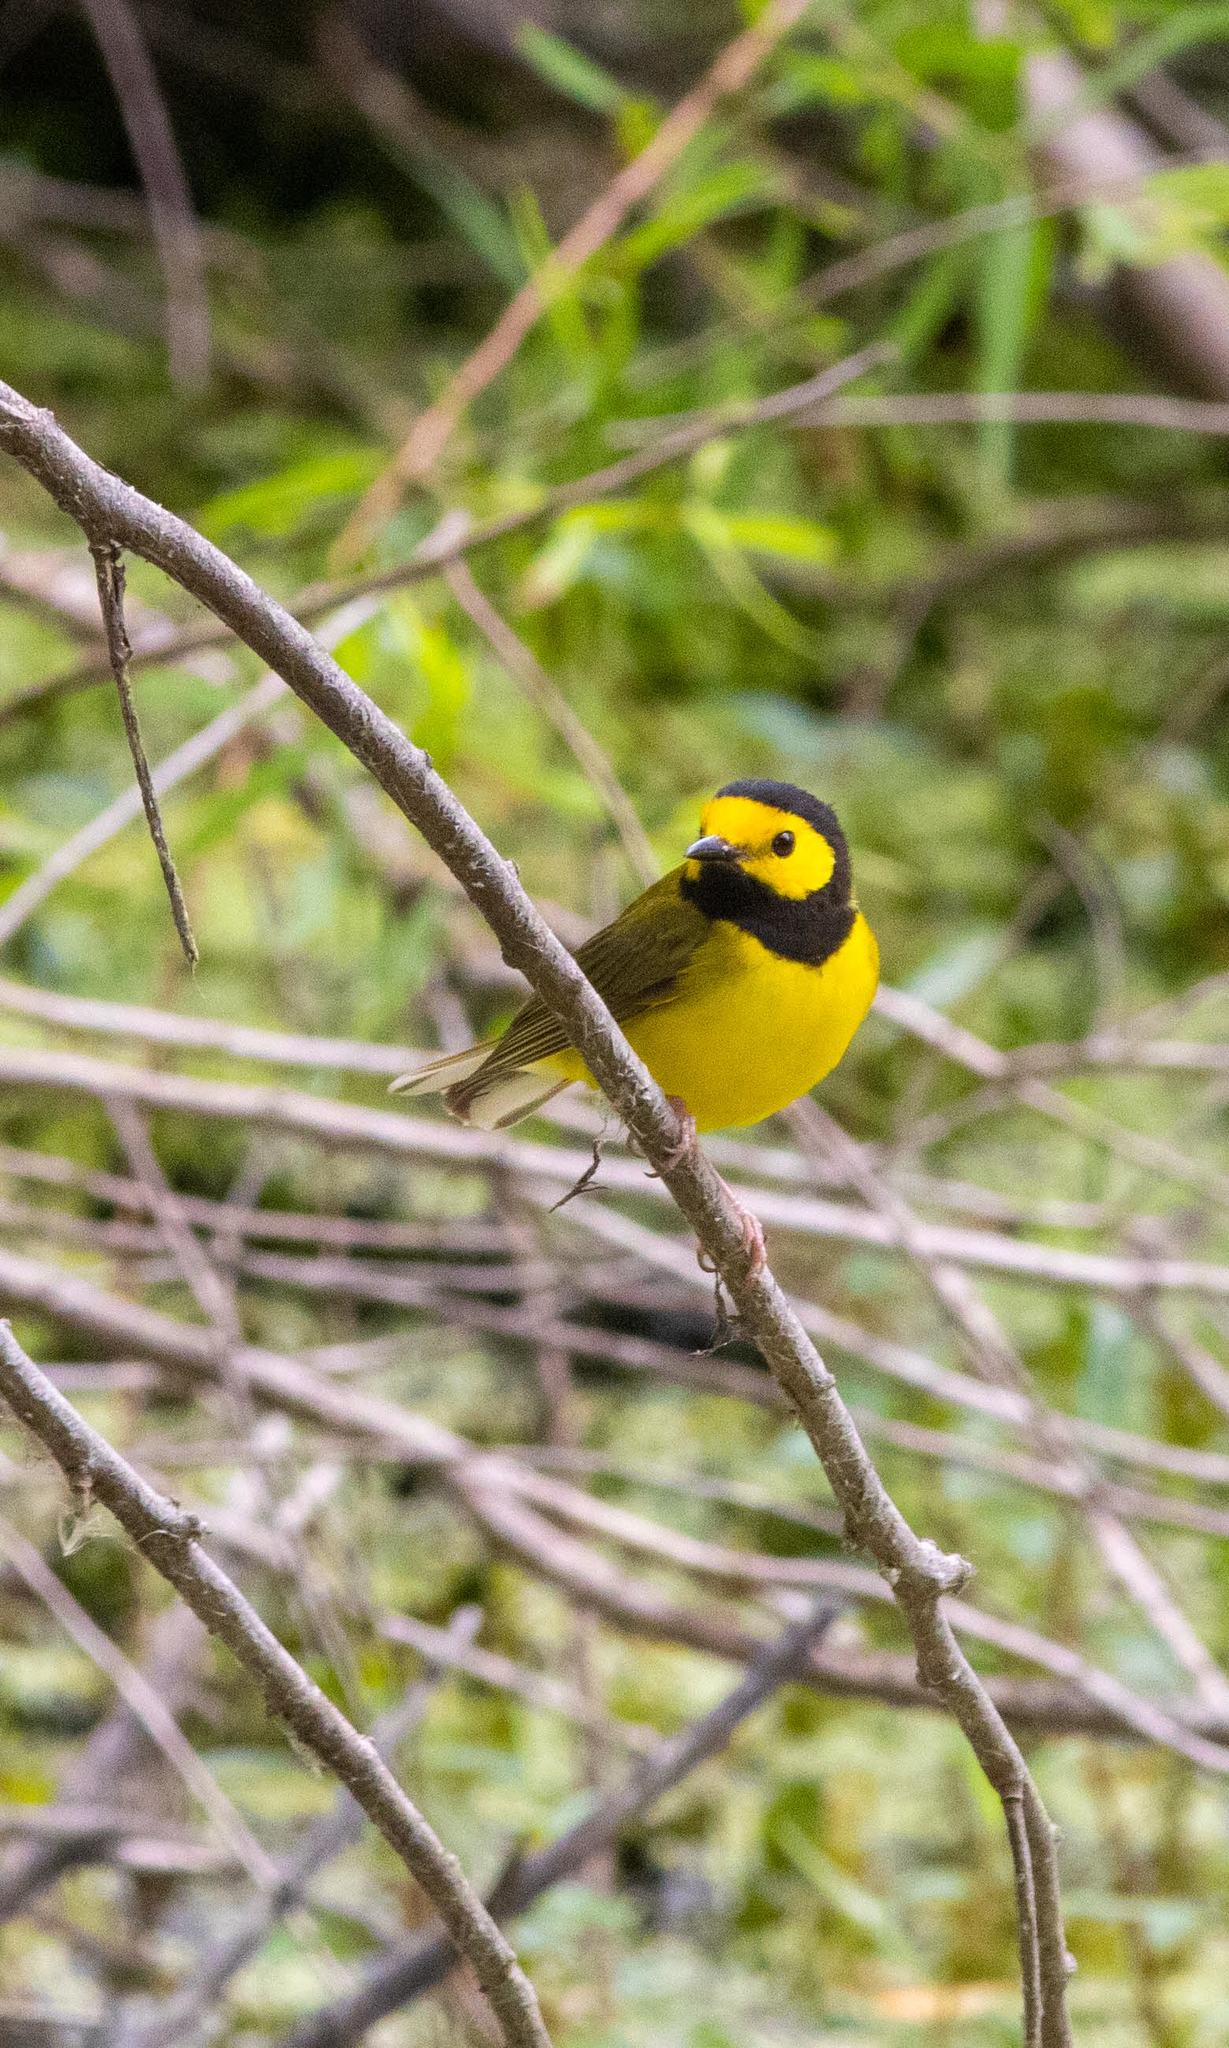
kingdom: Animalia
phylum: Chordata
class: Aves
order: Passeriformes
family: Parulidae
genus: Setophaga
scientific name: Setophaga citrina
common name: Hooded warbler
